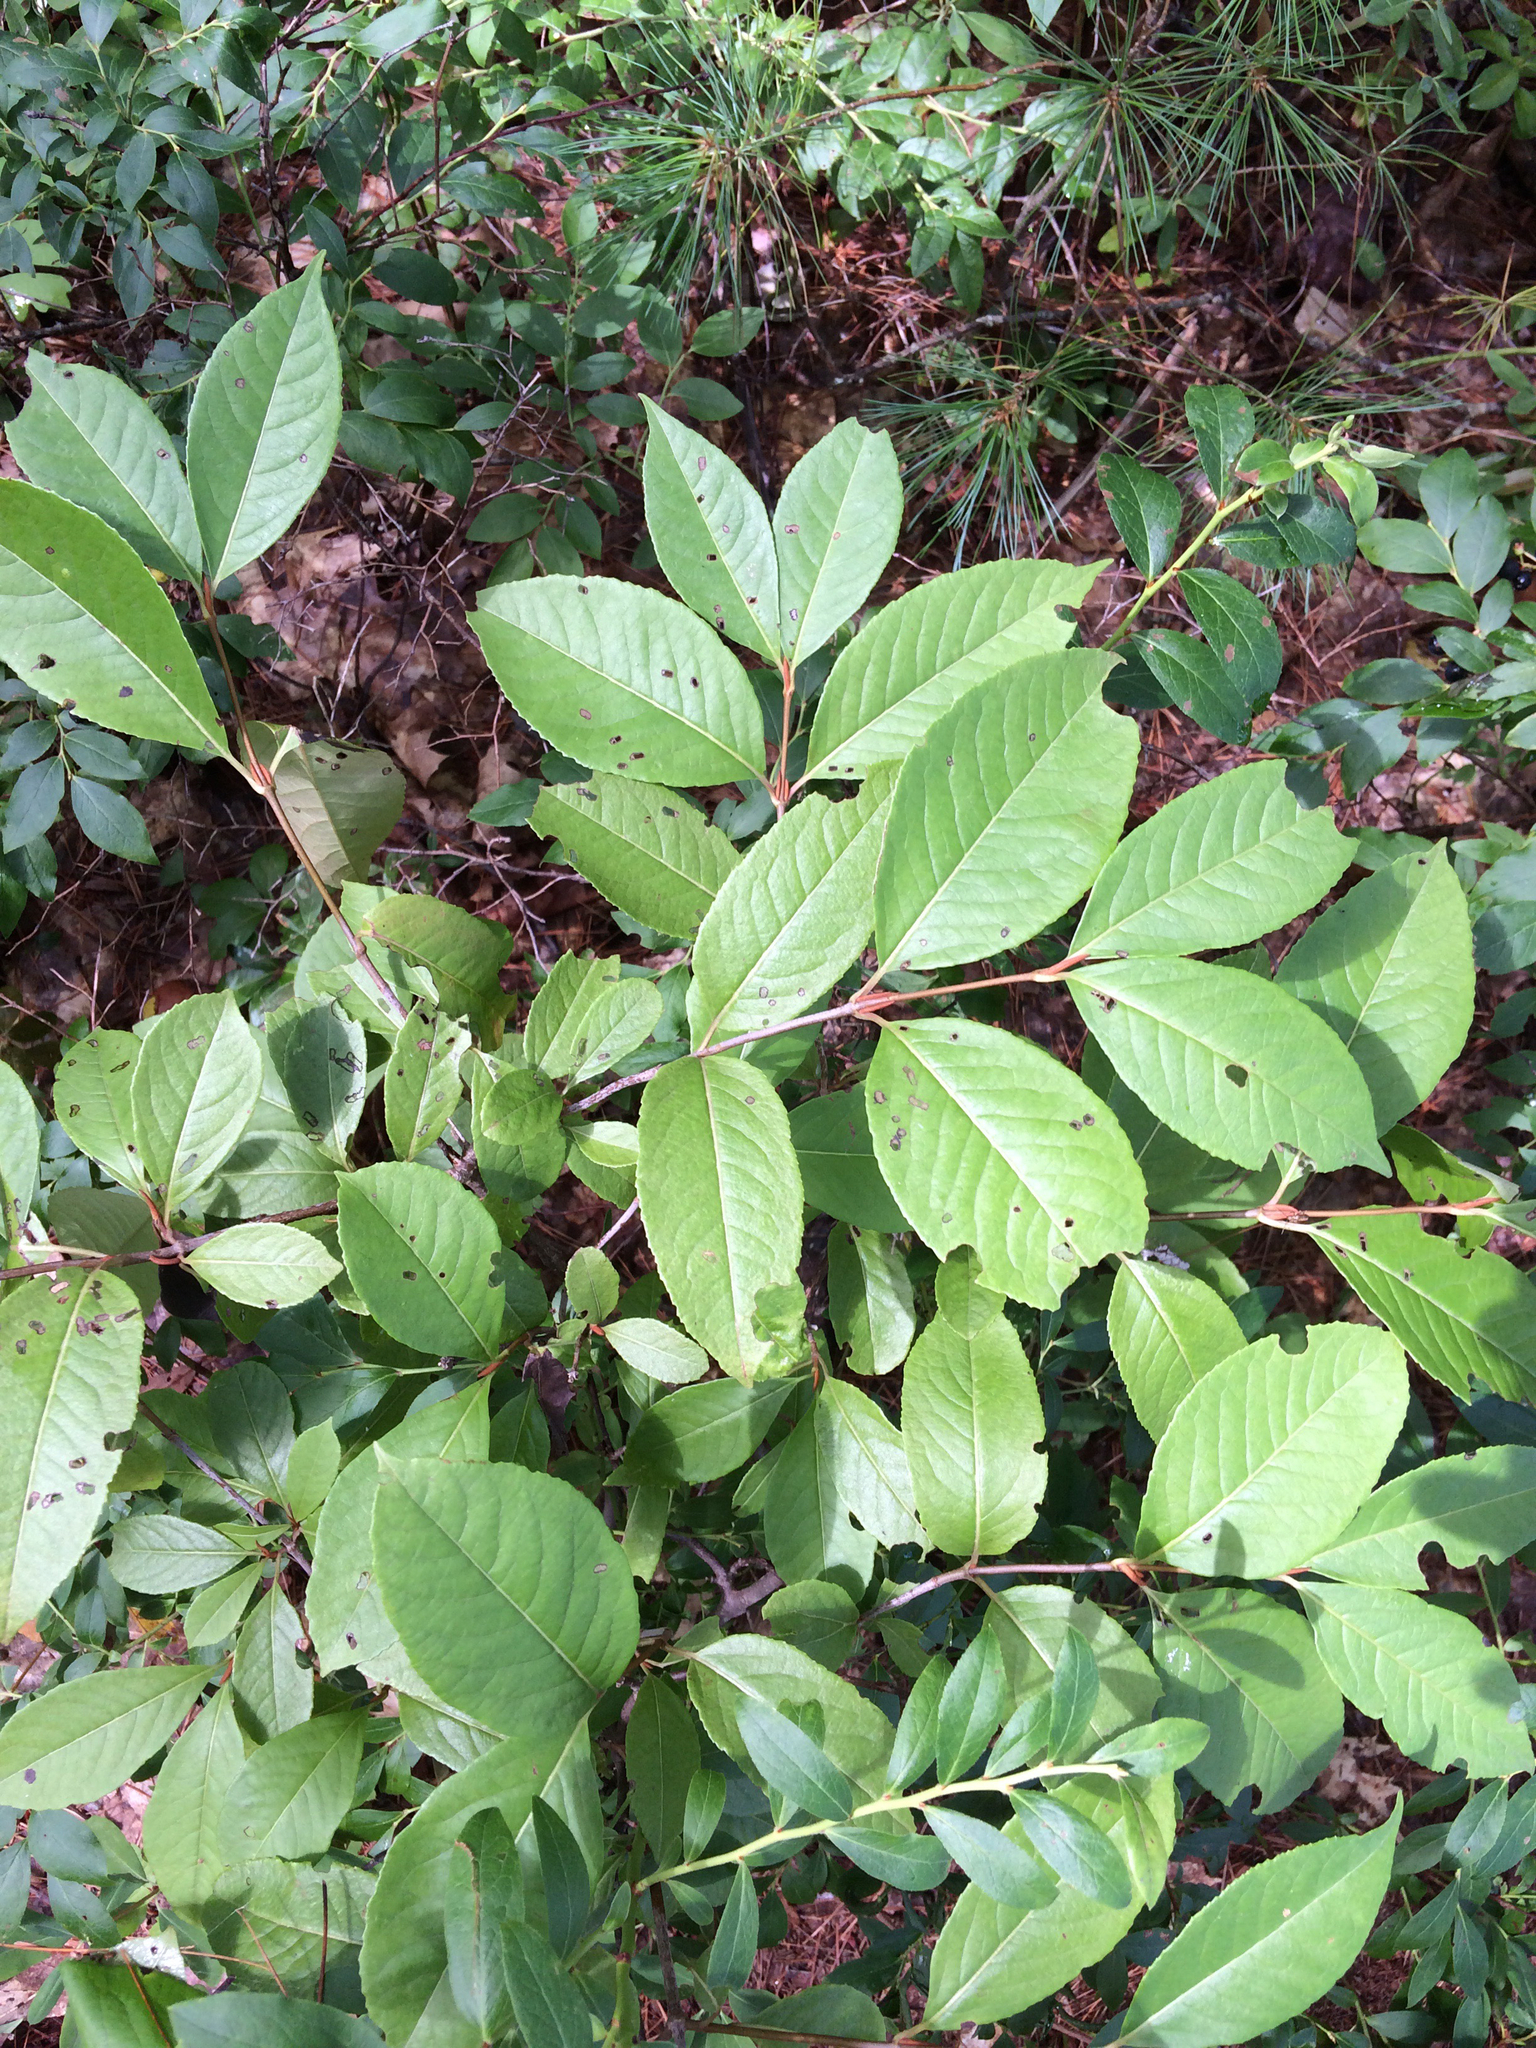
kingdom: Plantae
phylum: Tracheophyta
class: Magnoliopsida
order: Dipsacales
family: Viburnaceae
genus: Viburnum
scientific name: Viburnum cassinoides
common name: Swamp haw
